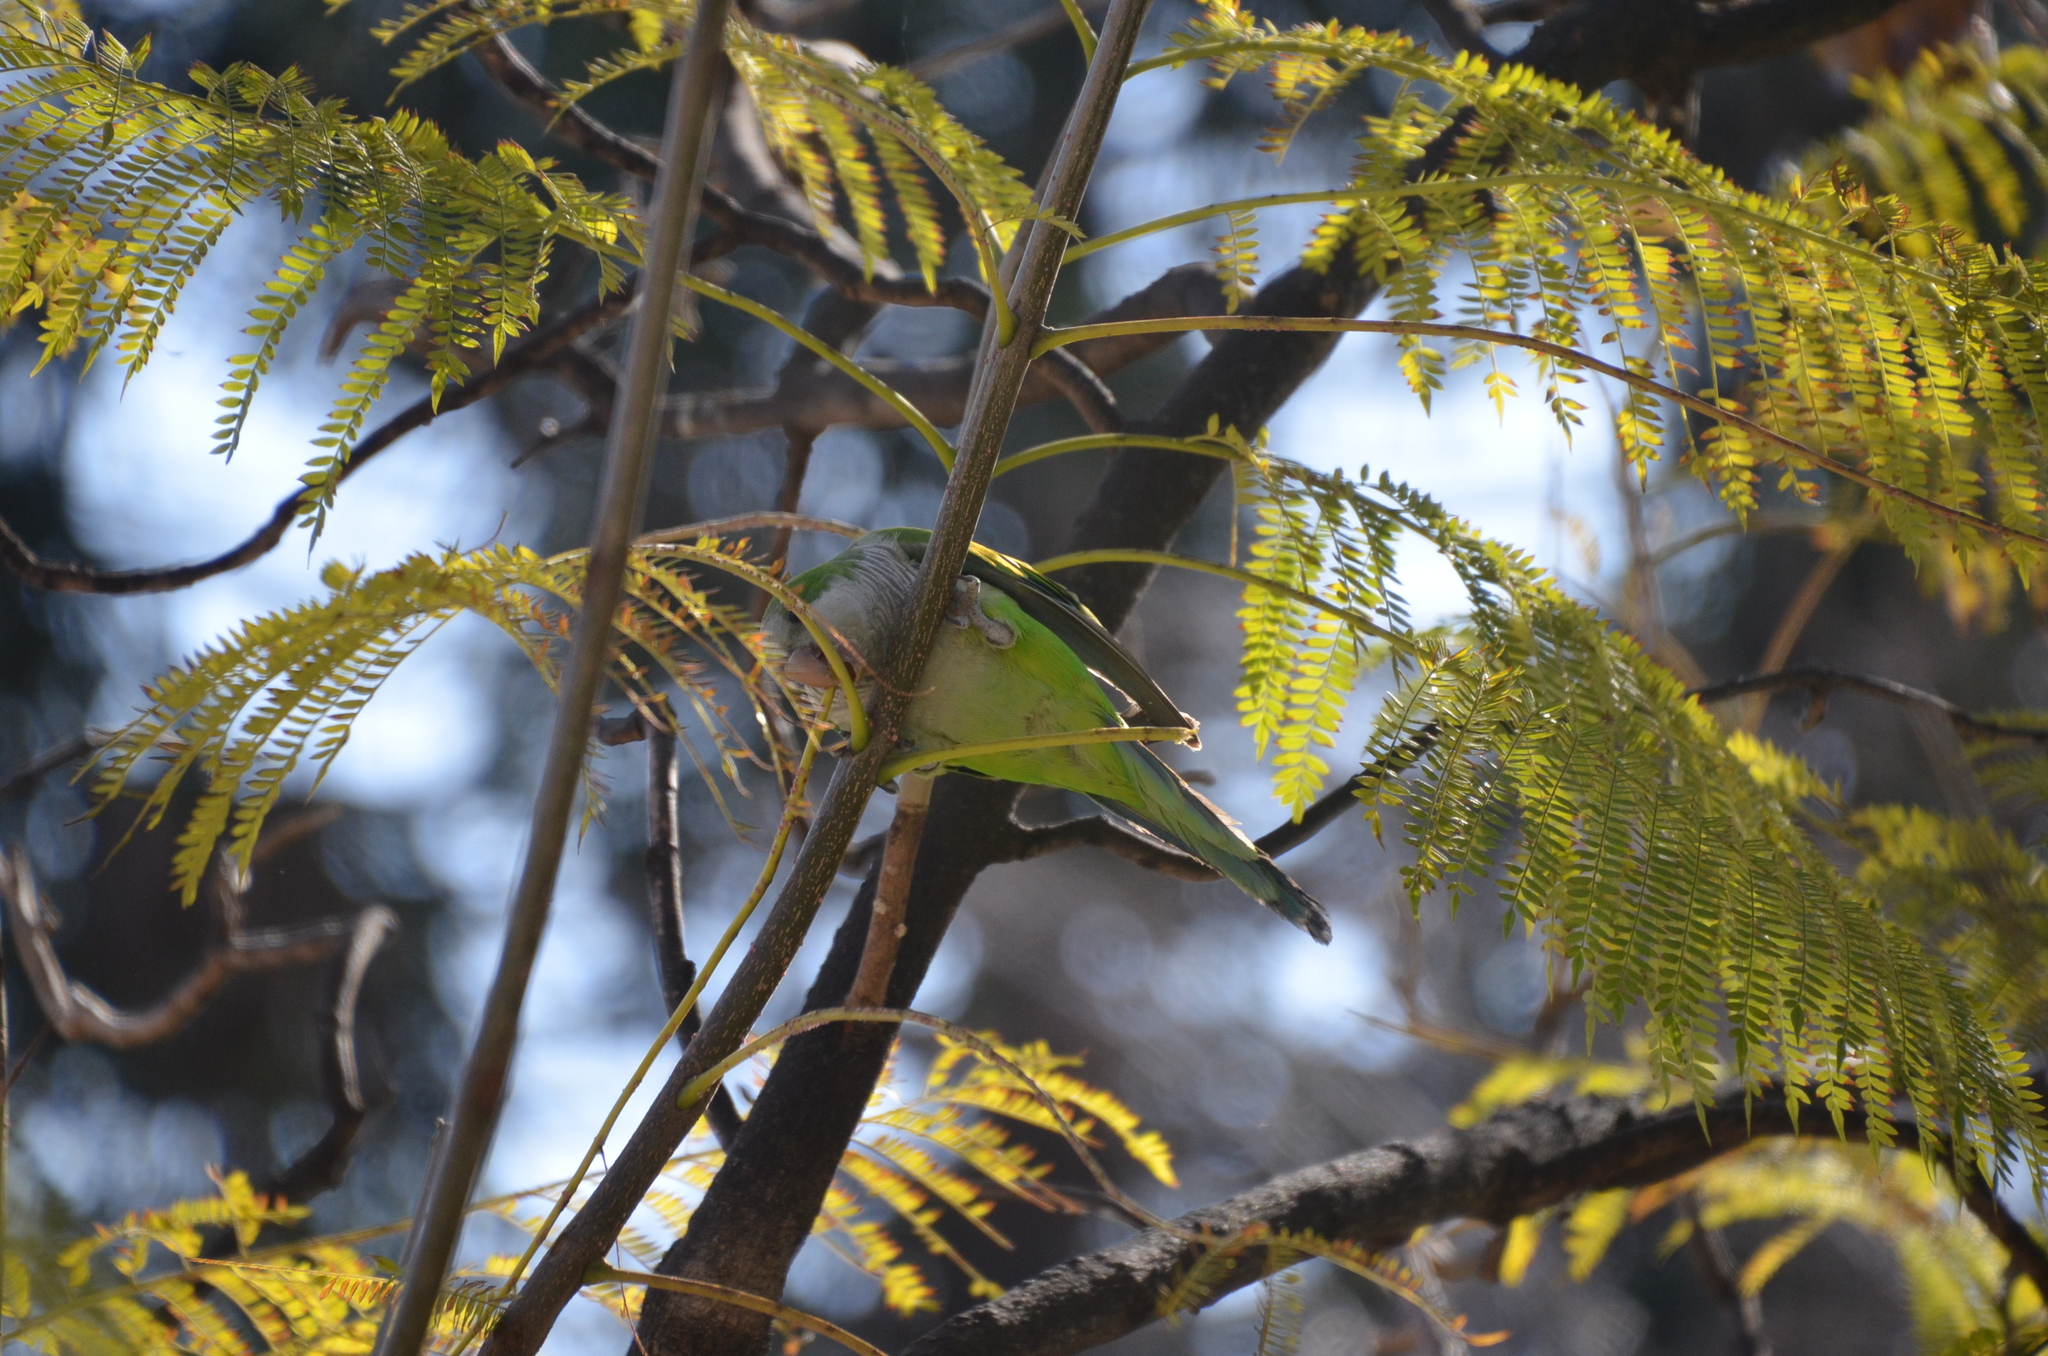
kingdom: Animalia
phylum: Chordata
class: Aves
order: Psittaciformes
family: Psittacidae
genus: Myiopsitta
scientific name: Myiopsitta monachus
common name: Monk parakeet
